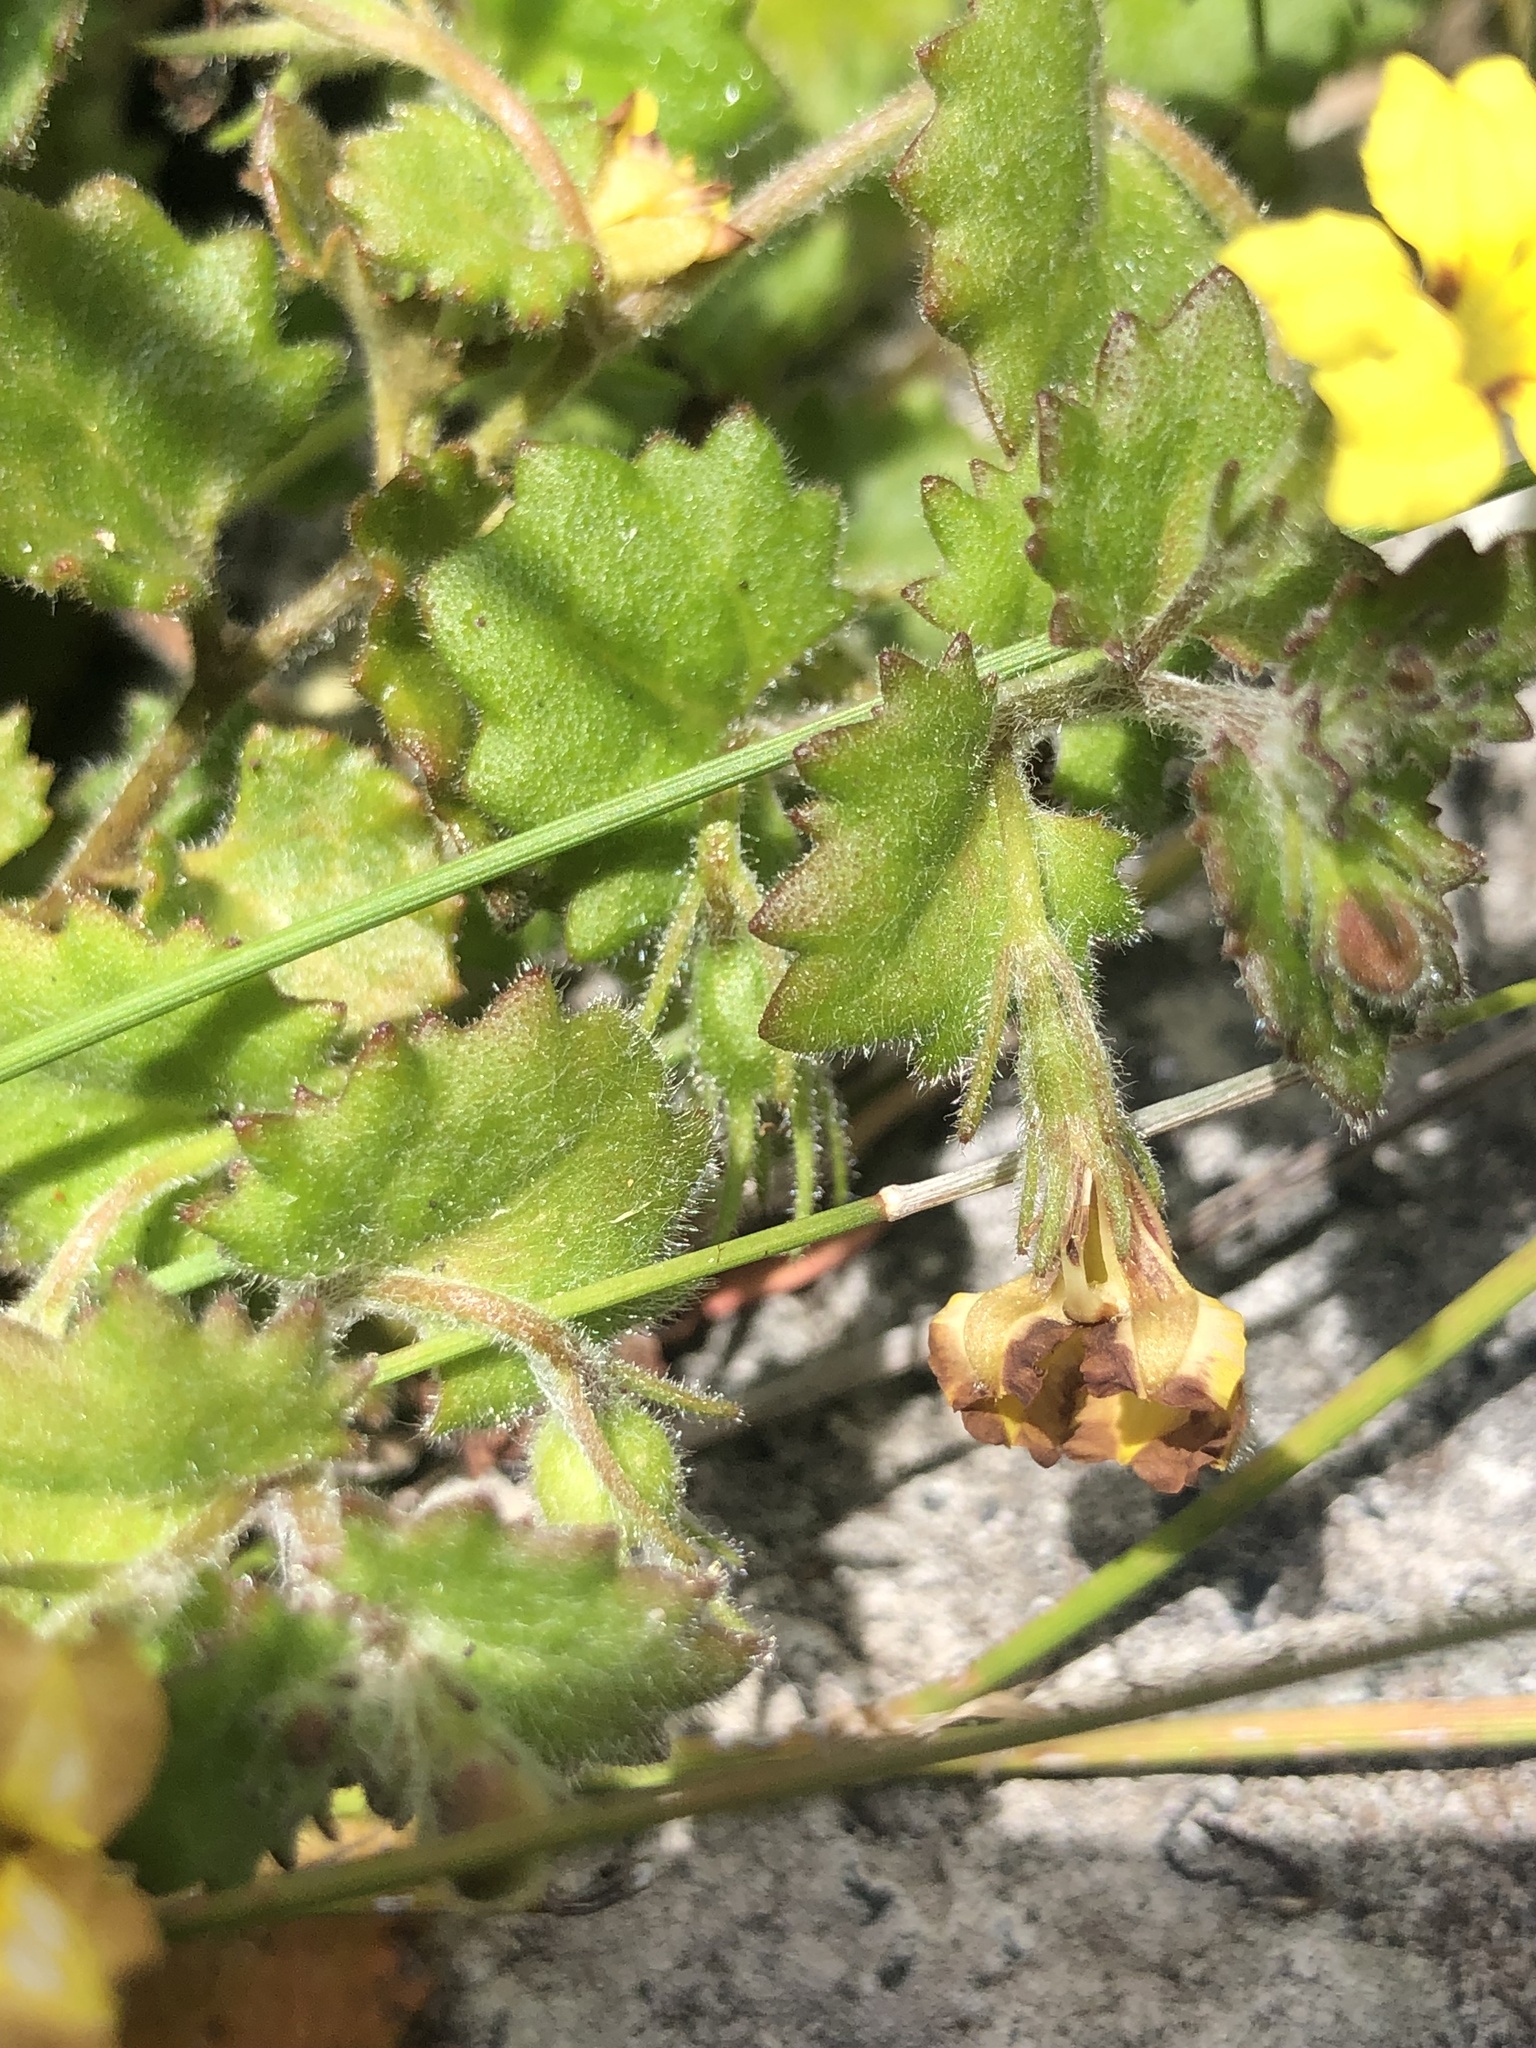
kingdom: Plantae
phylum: Tracheophyta
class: Magnoliopsida
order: Asterales
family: Goodeniaceae
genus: Goodenia
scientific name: Goodenia rotundifolia
